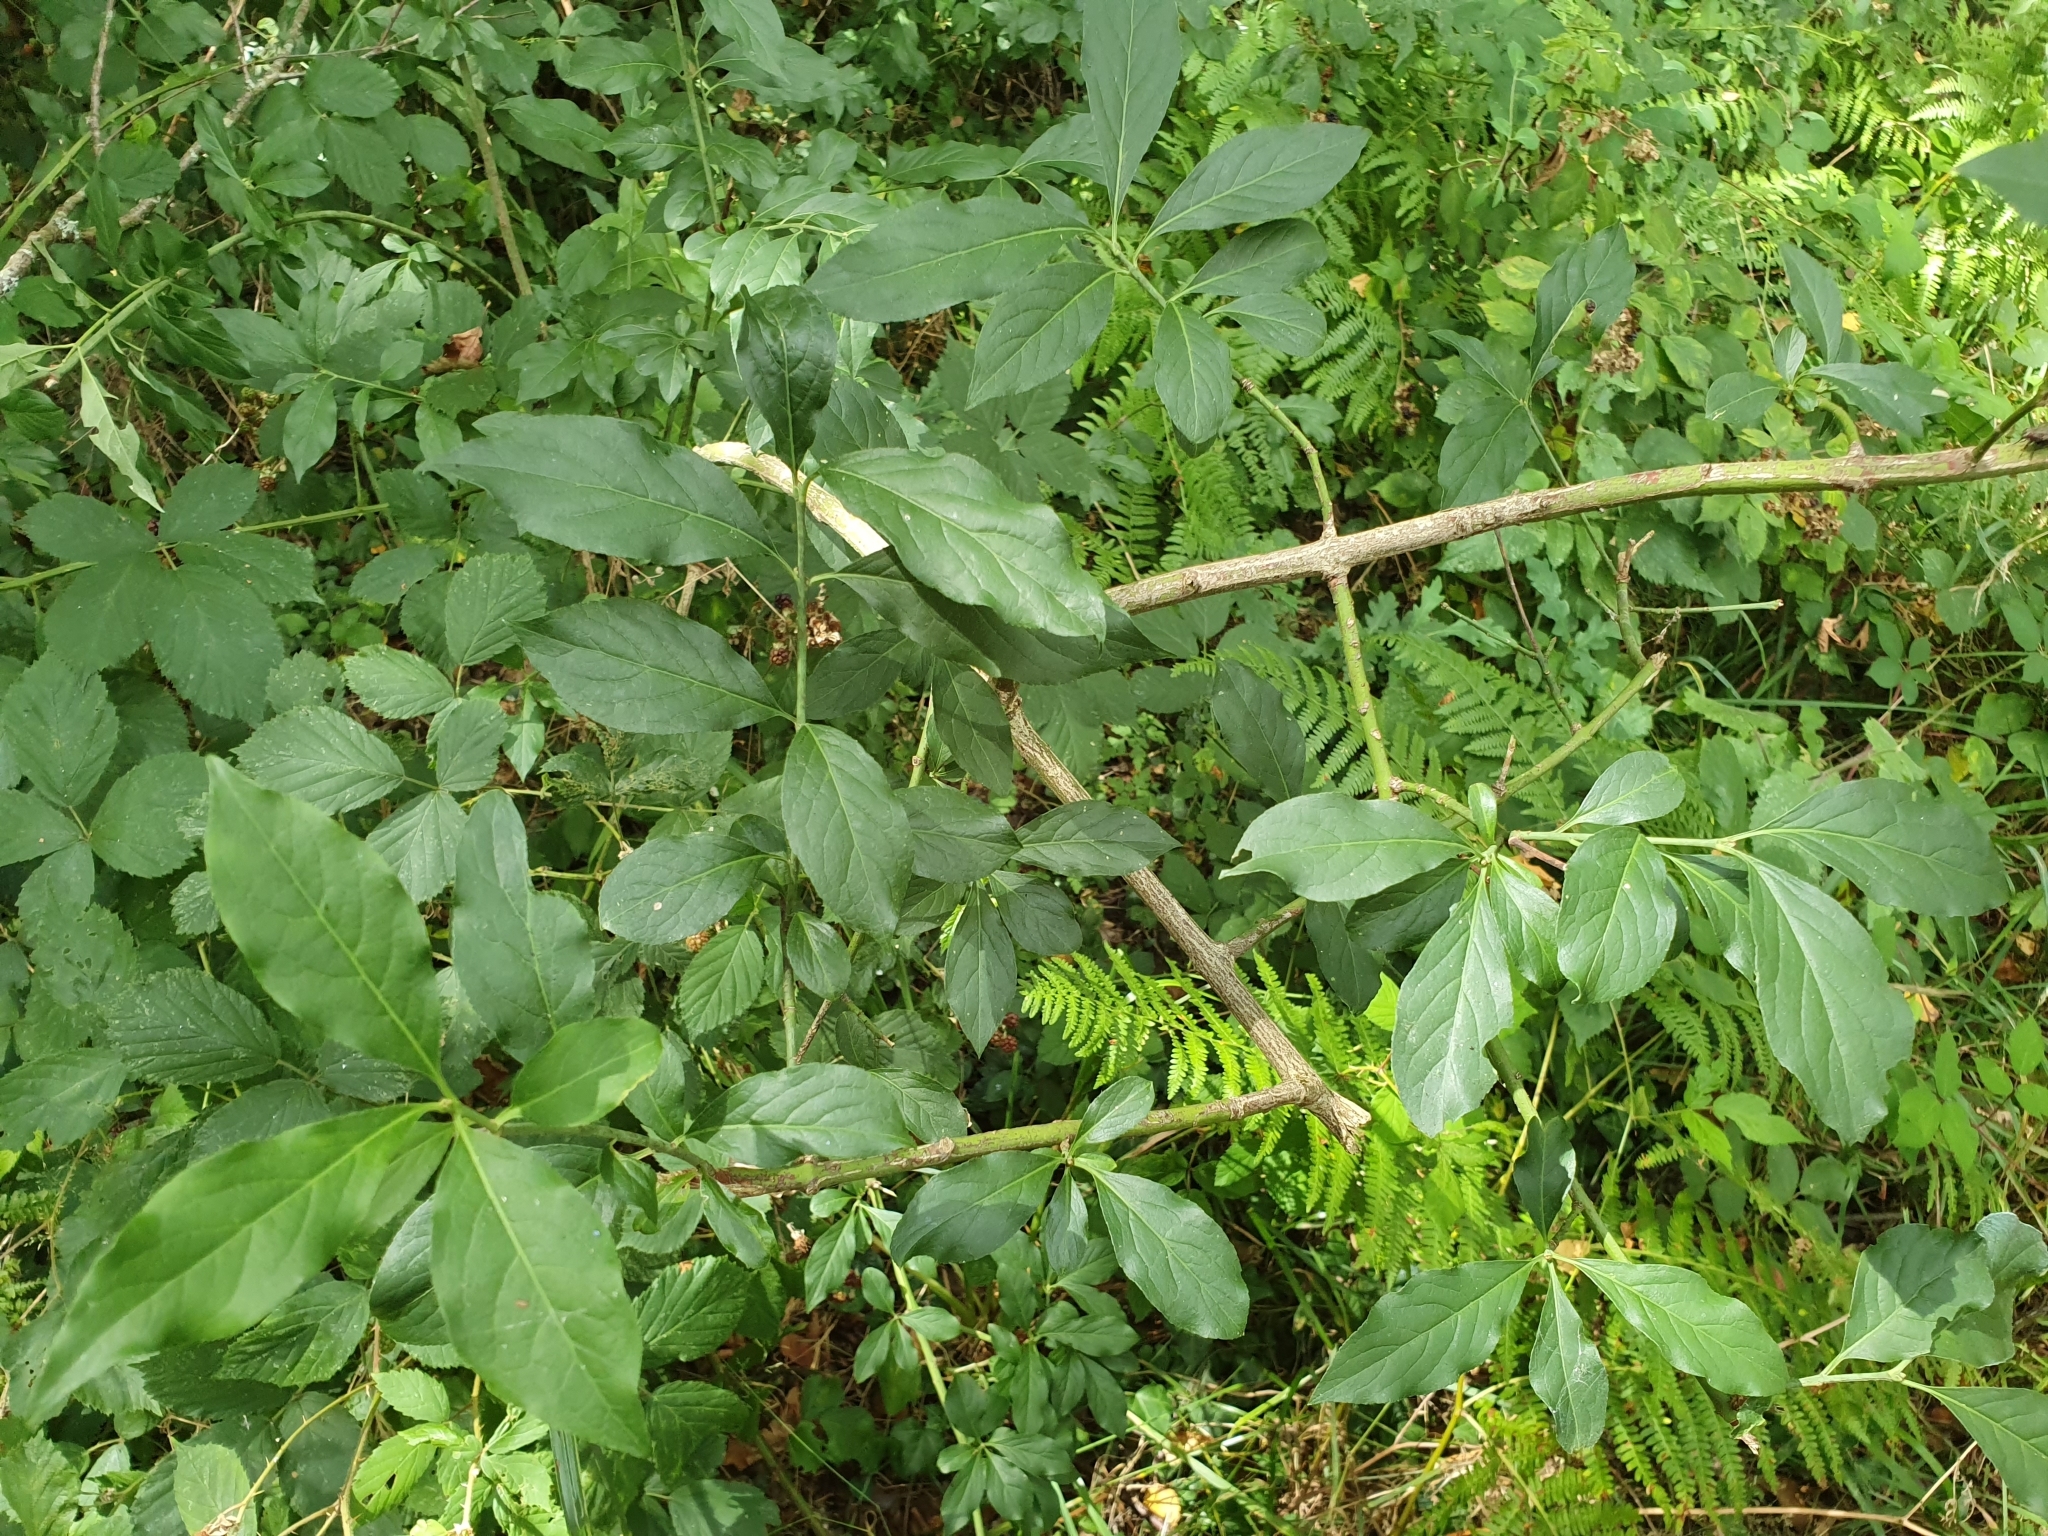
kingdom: Plantae
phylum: Tracheophyta
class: Magnoliopsida
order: Celastrales
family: Celastraceae
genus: Euonymus
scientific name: Euonymus europaeus
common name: Spindle
